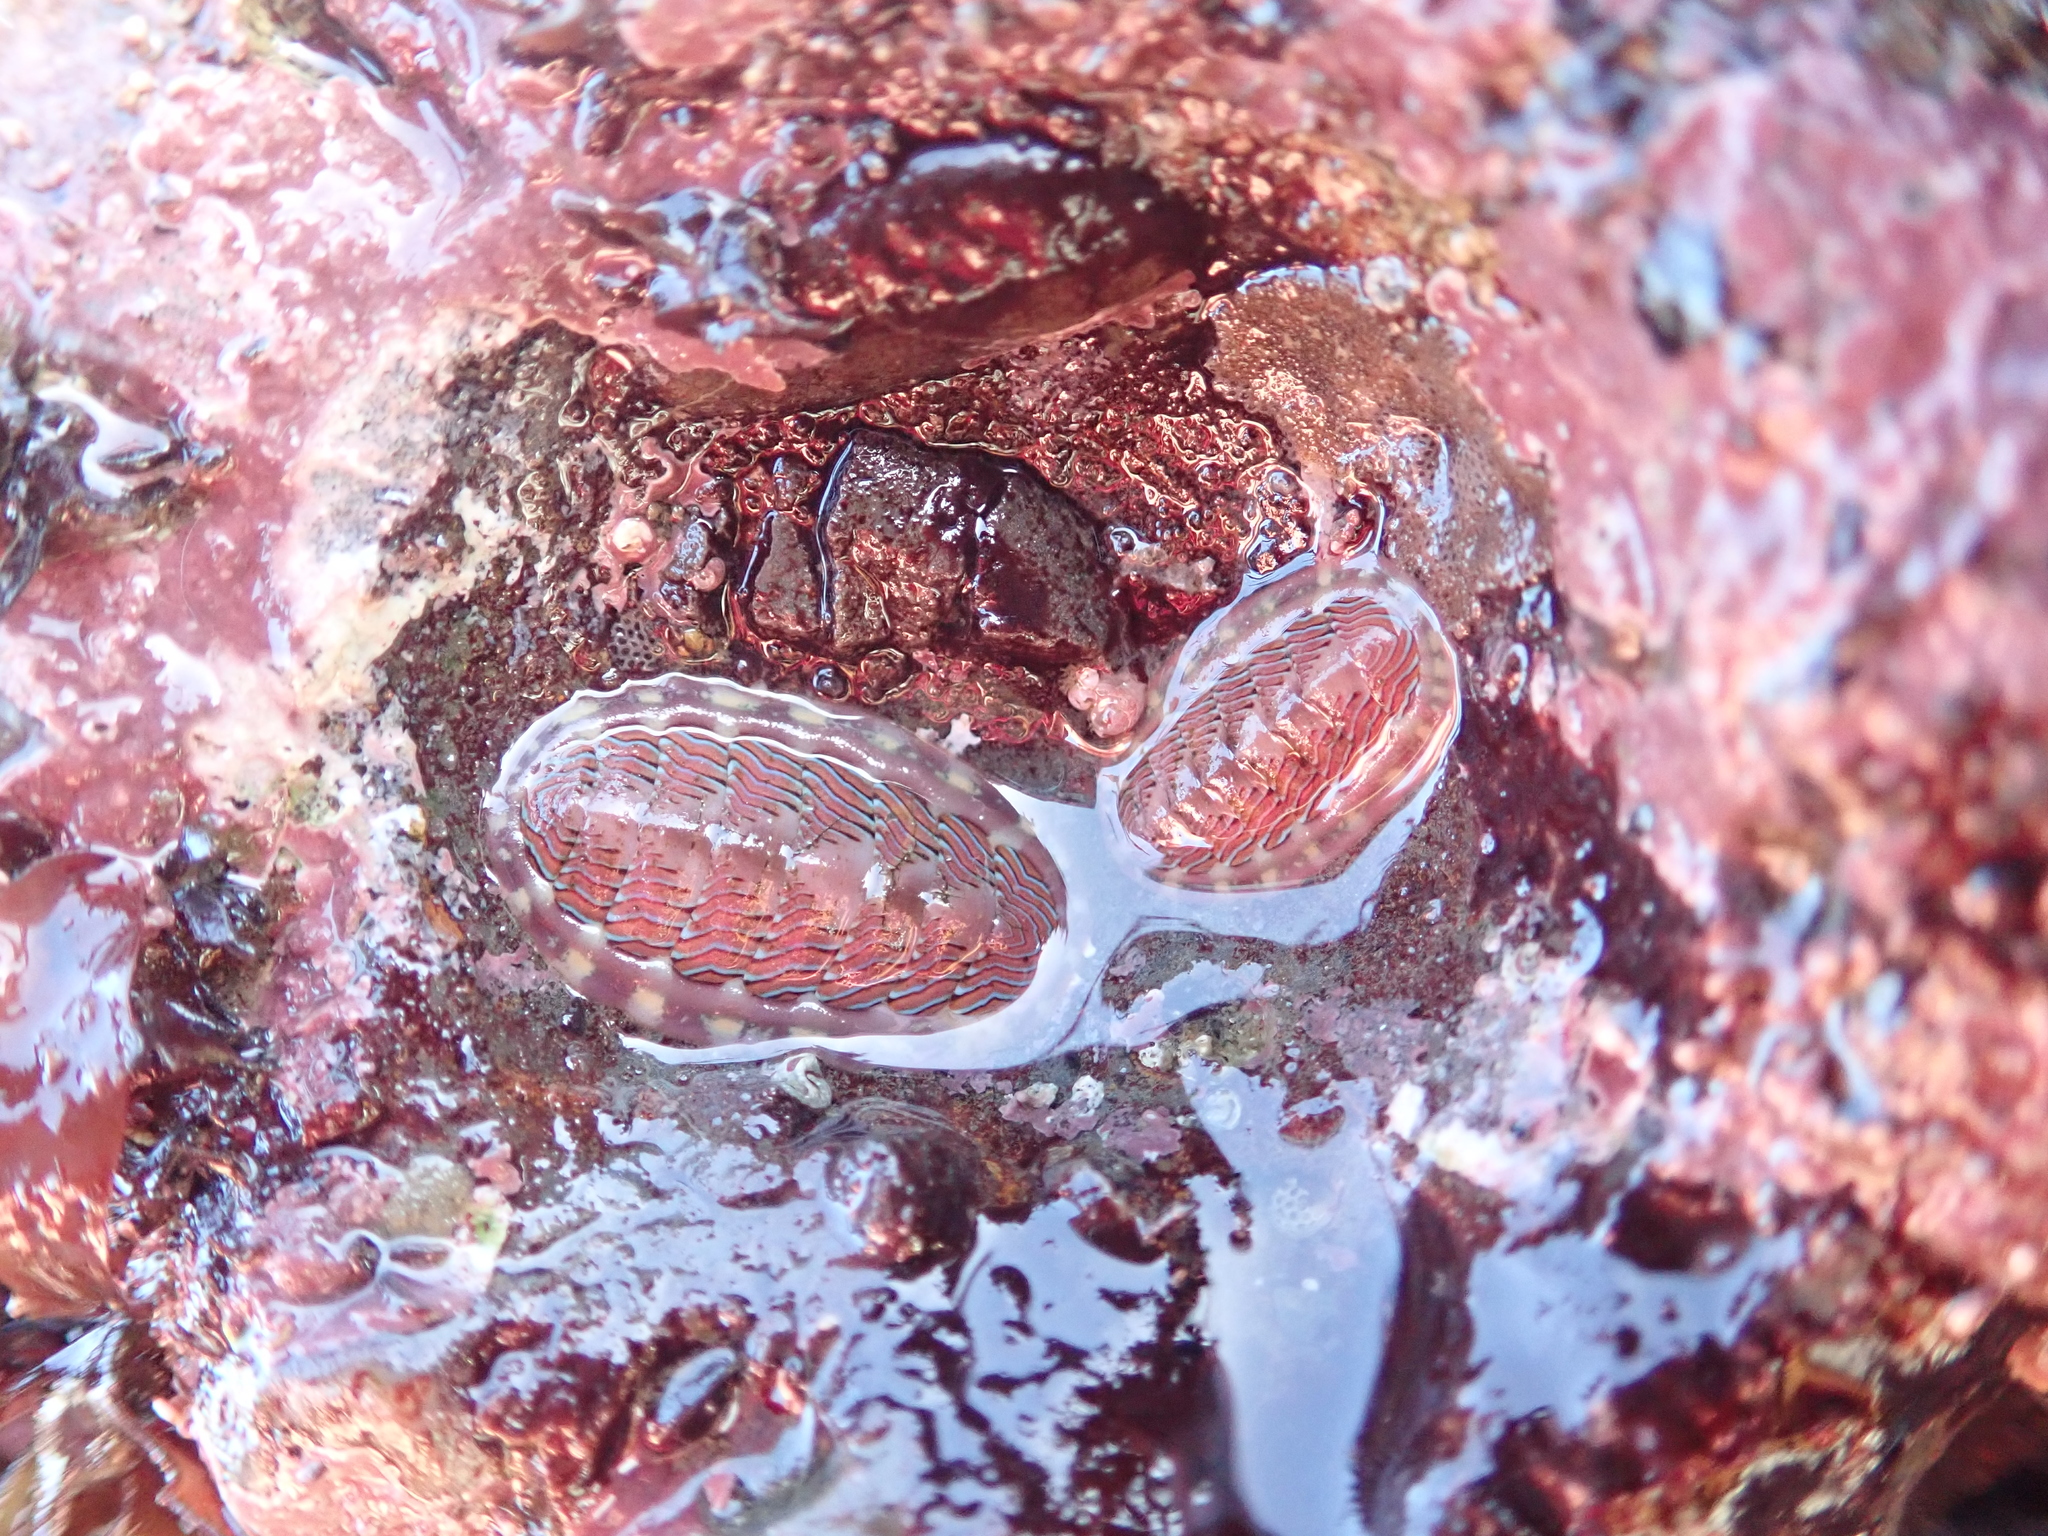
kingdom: Animalia
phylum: Mollusca
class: Polyplacophora
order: Chitonida
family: Tonicellidae
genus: Tonicella
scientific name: Tonicella lineata
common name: Lined chiton
